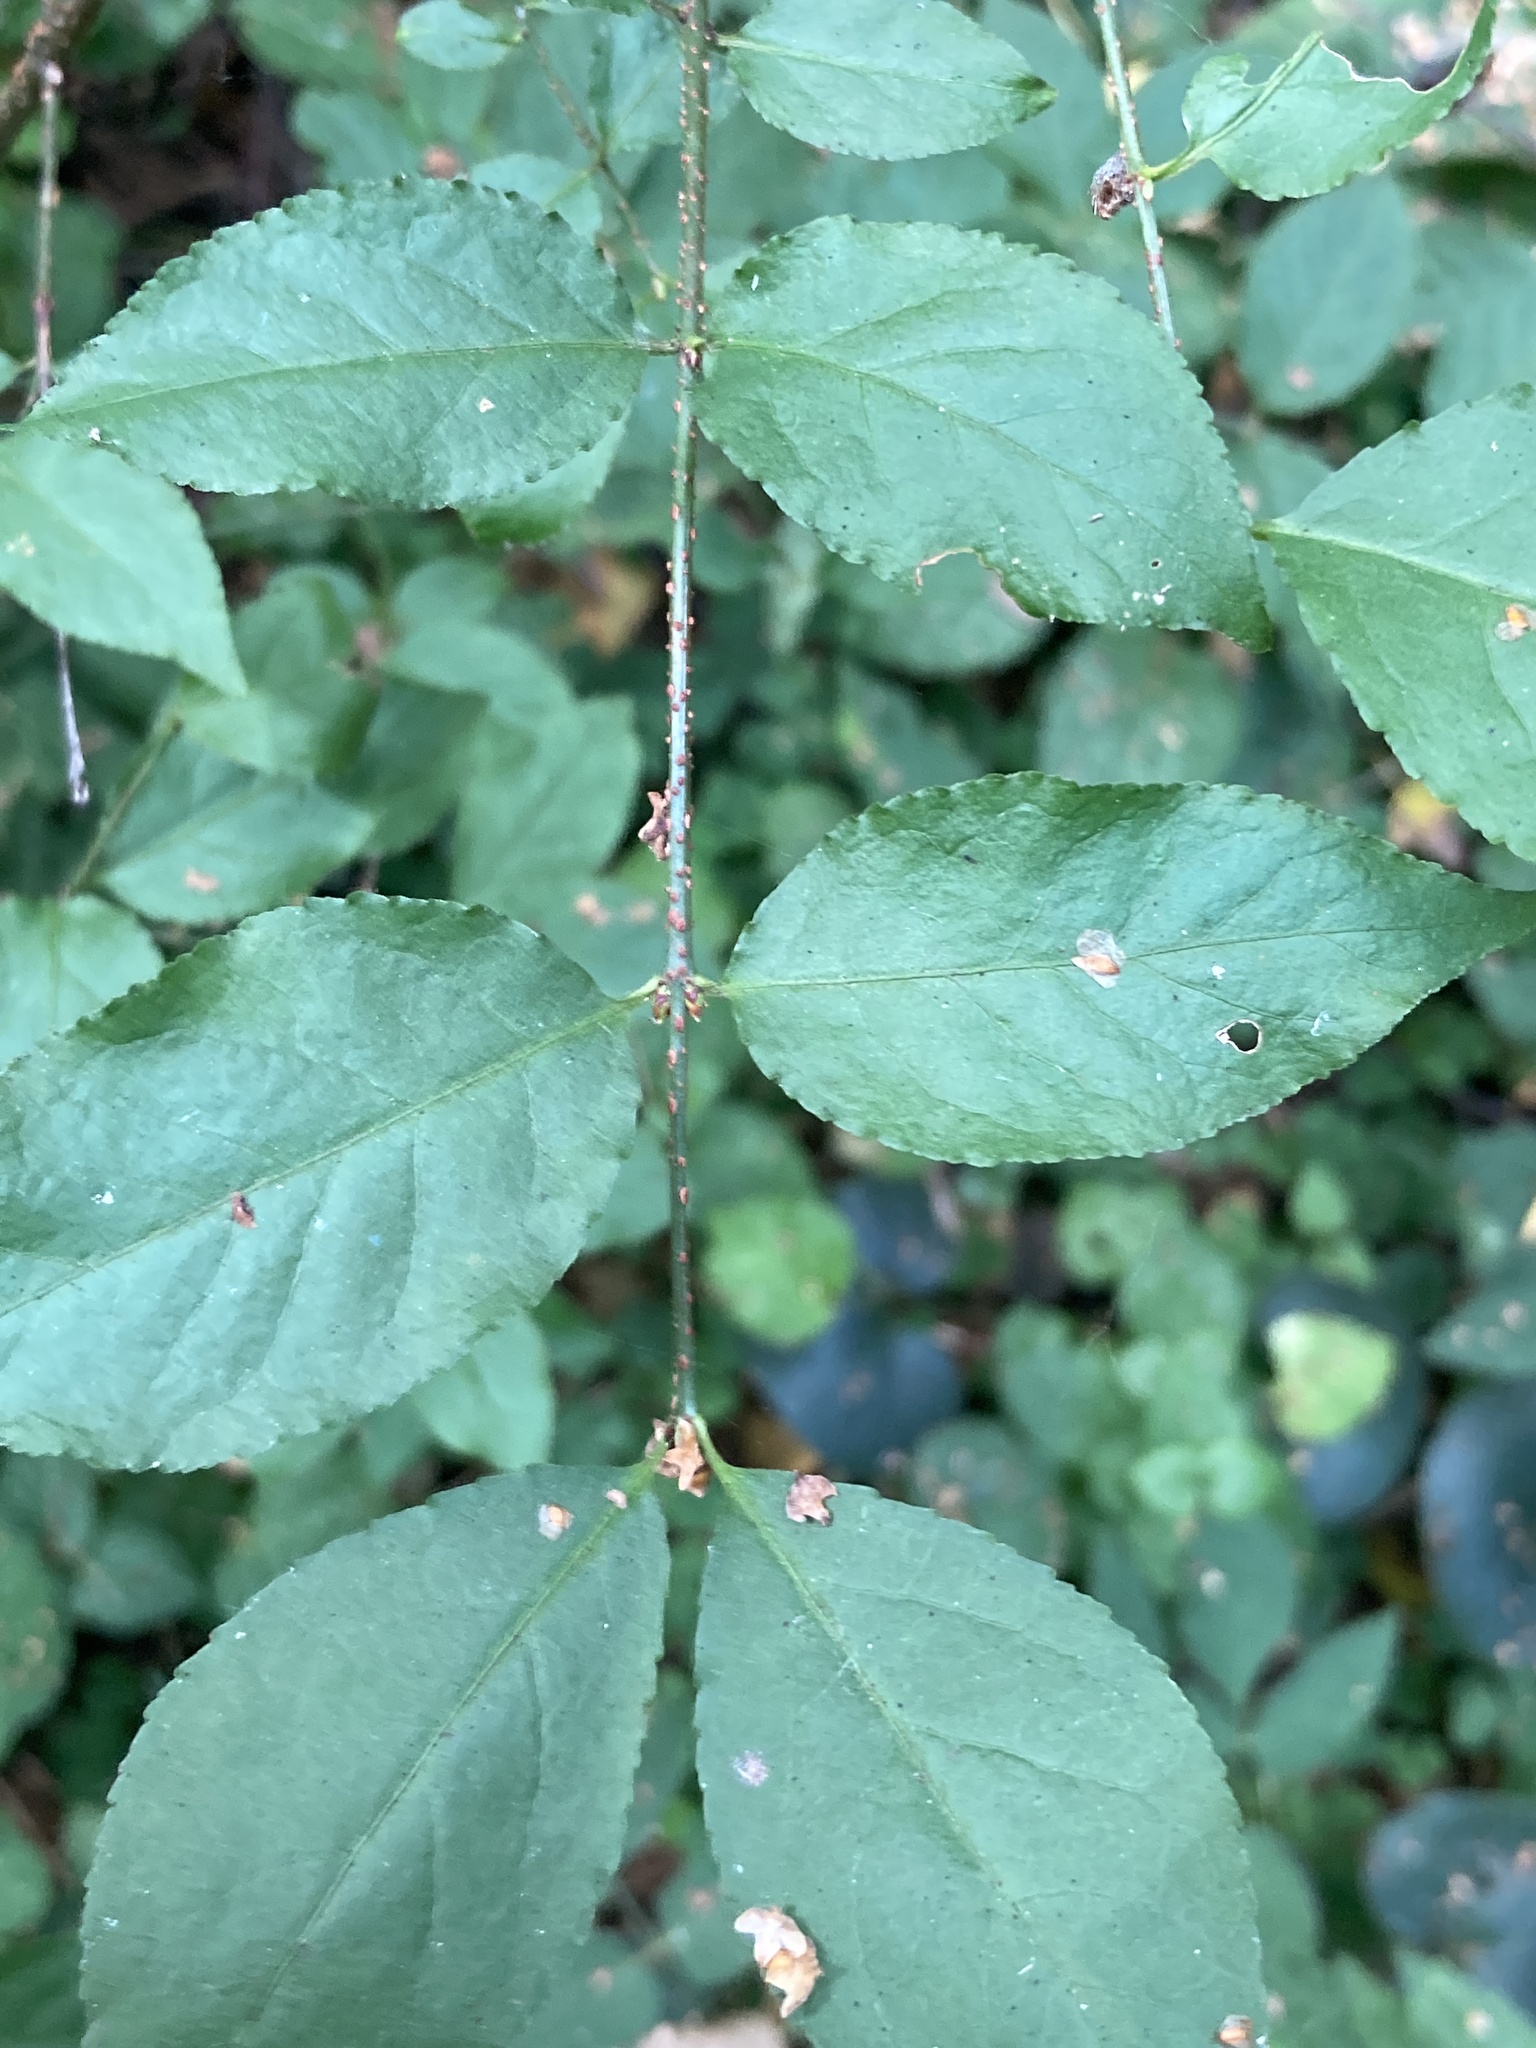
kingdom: Plantae
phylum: Tracheophyta
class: Magnoliopsida
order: Celastrales
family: Celastraceae
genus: Euonymus
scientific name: Euonymus verrucosus
